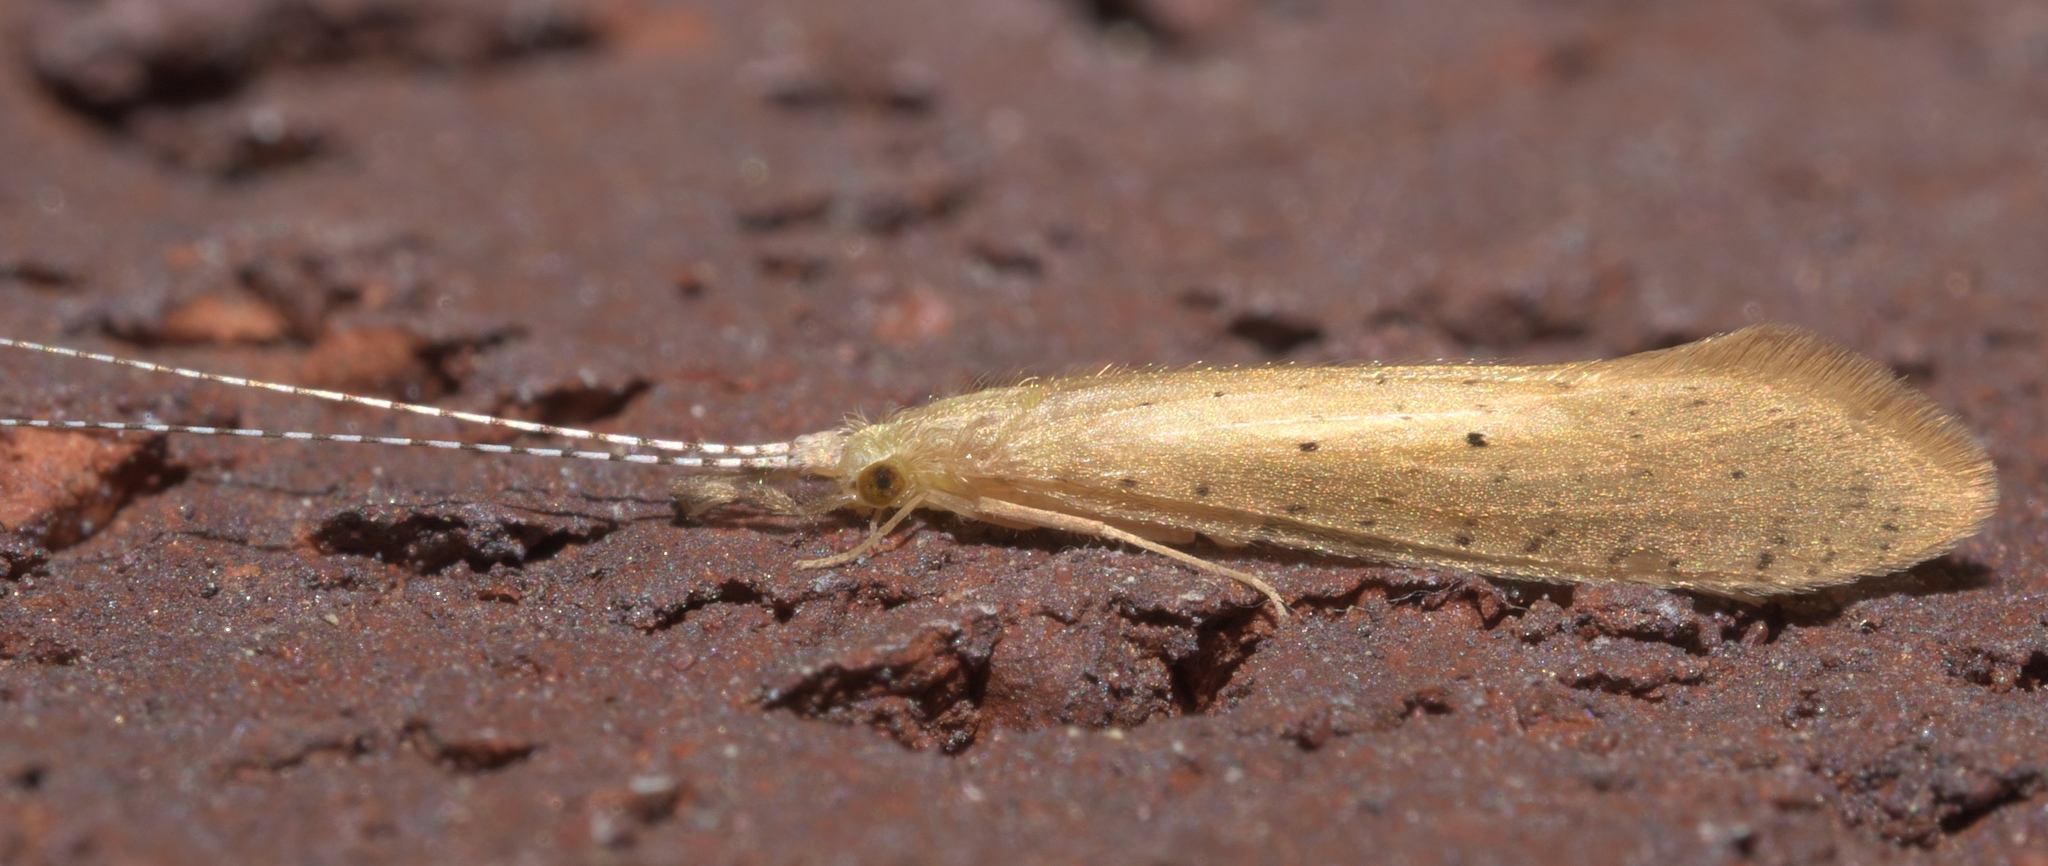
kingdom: Animalia
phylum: Arthropoda
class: Insecta
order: Trichoptera
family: Leptoceridae
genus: Nectopsyche
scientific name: Nectopsyche pavida
